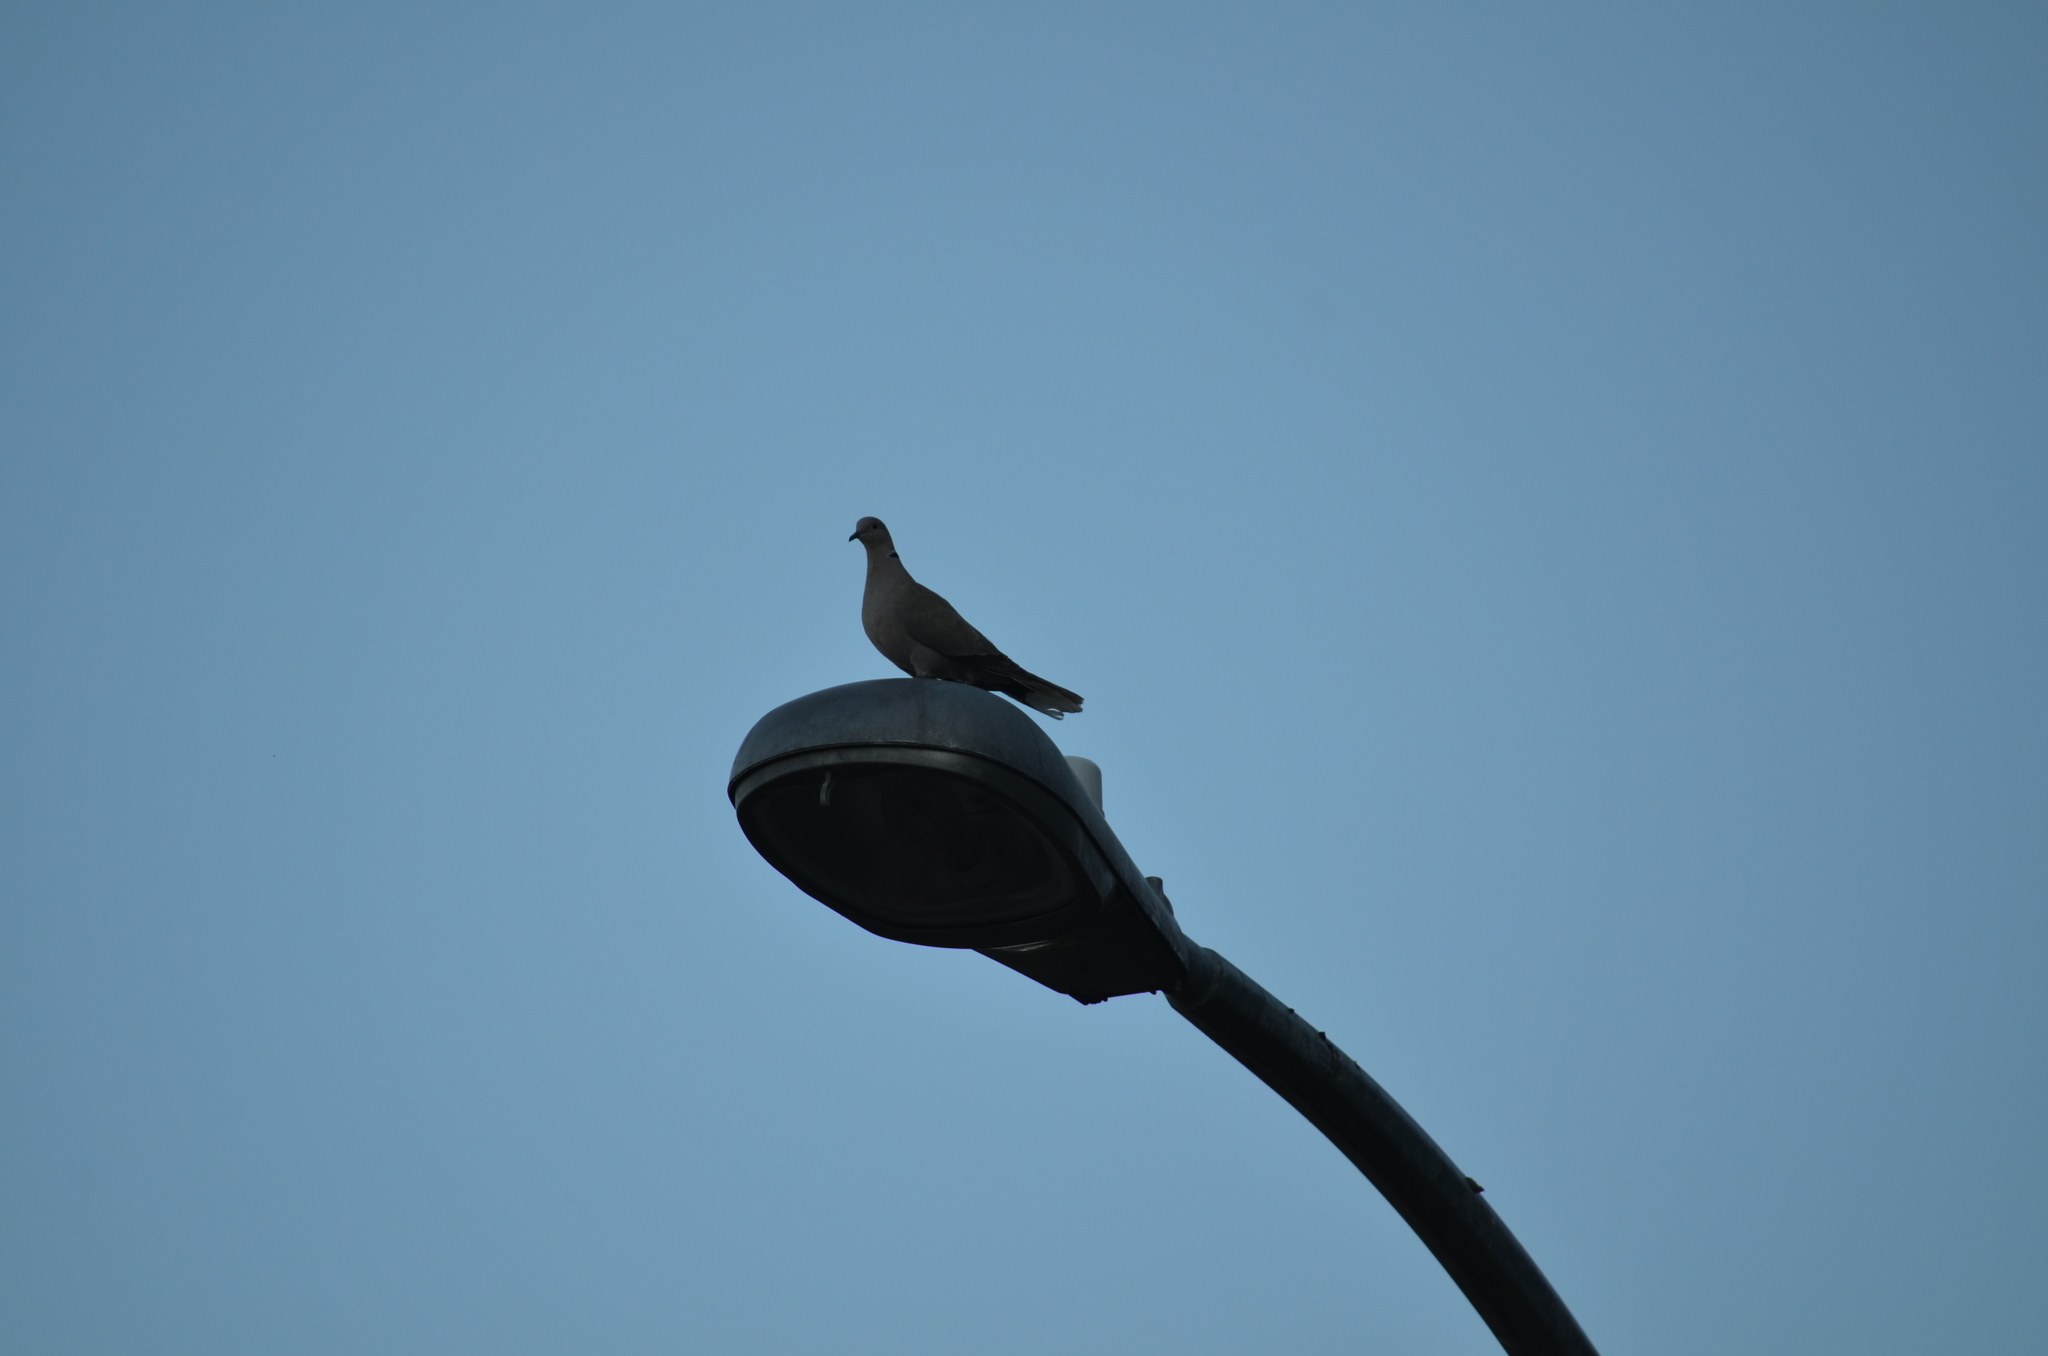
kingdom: Animalia
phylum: Chordata
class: Aves
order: Columbiformes
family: Columbidae
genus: Streptopelia
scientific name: Streptopelia decaocto
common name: Eurasian collared dove
